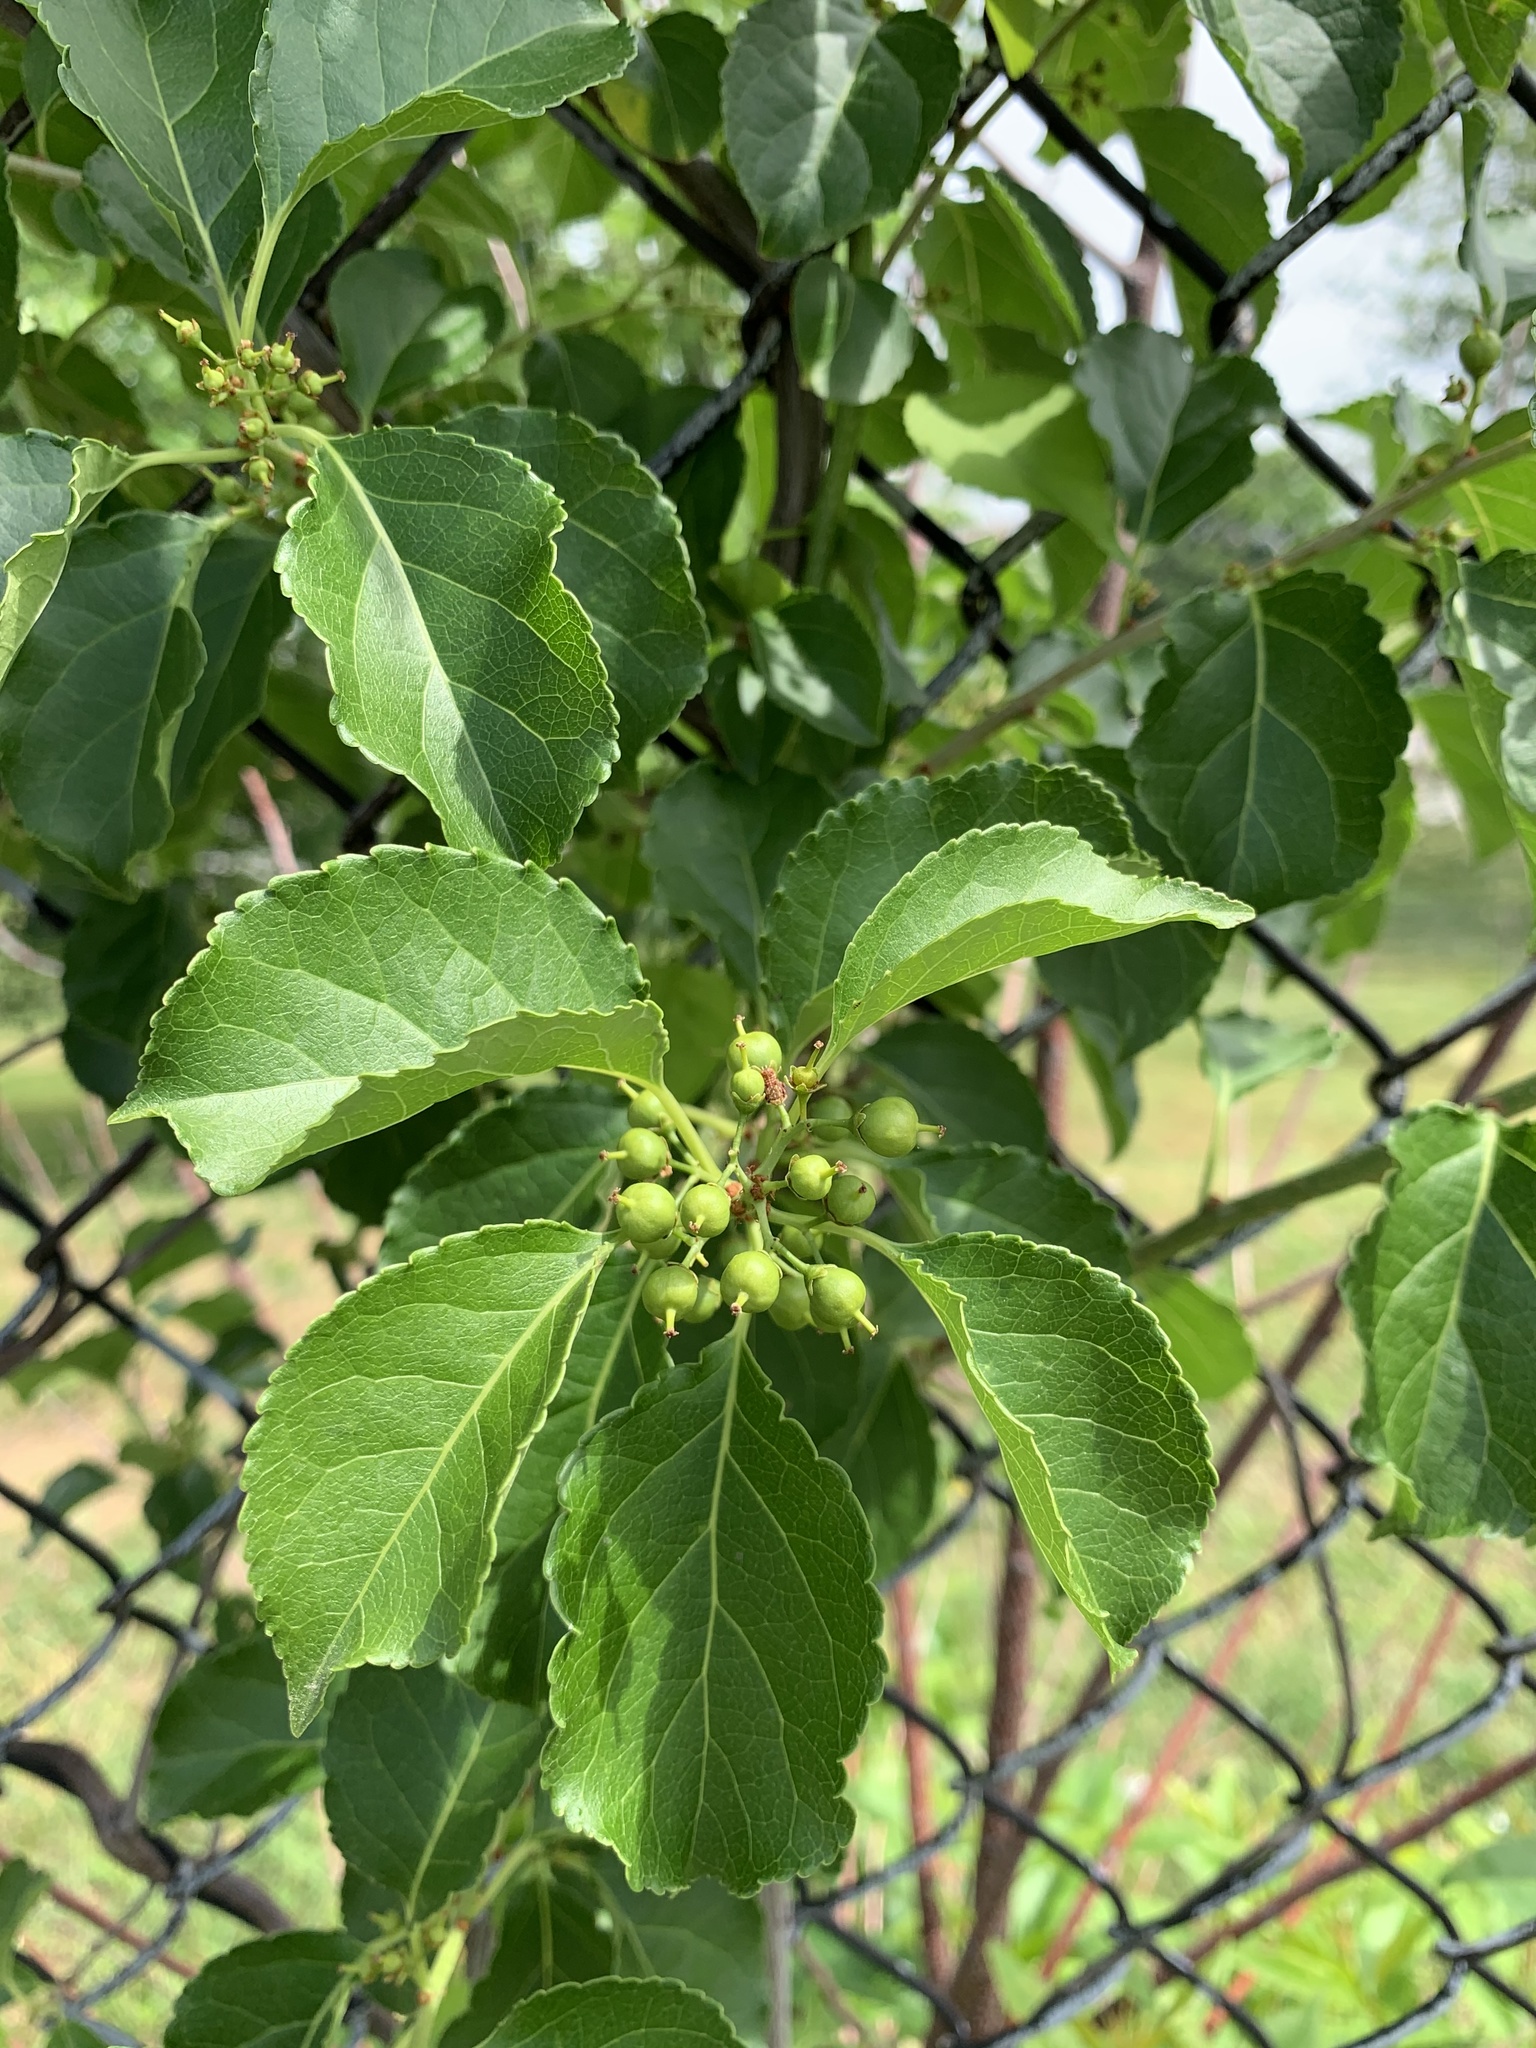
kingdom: Plantae
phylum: Tracheophyta
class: Magnoliopsida
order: Celastrales
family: Celastraceae
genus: Celastrus
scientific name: Celastrus orbiculatus
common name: Oriental bittersweet
